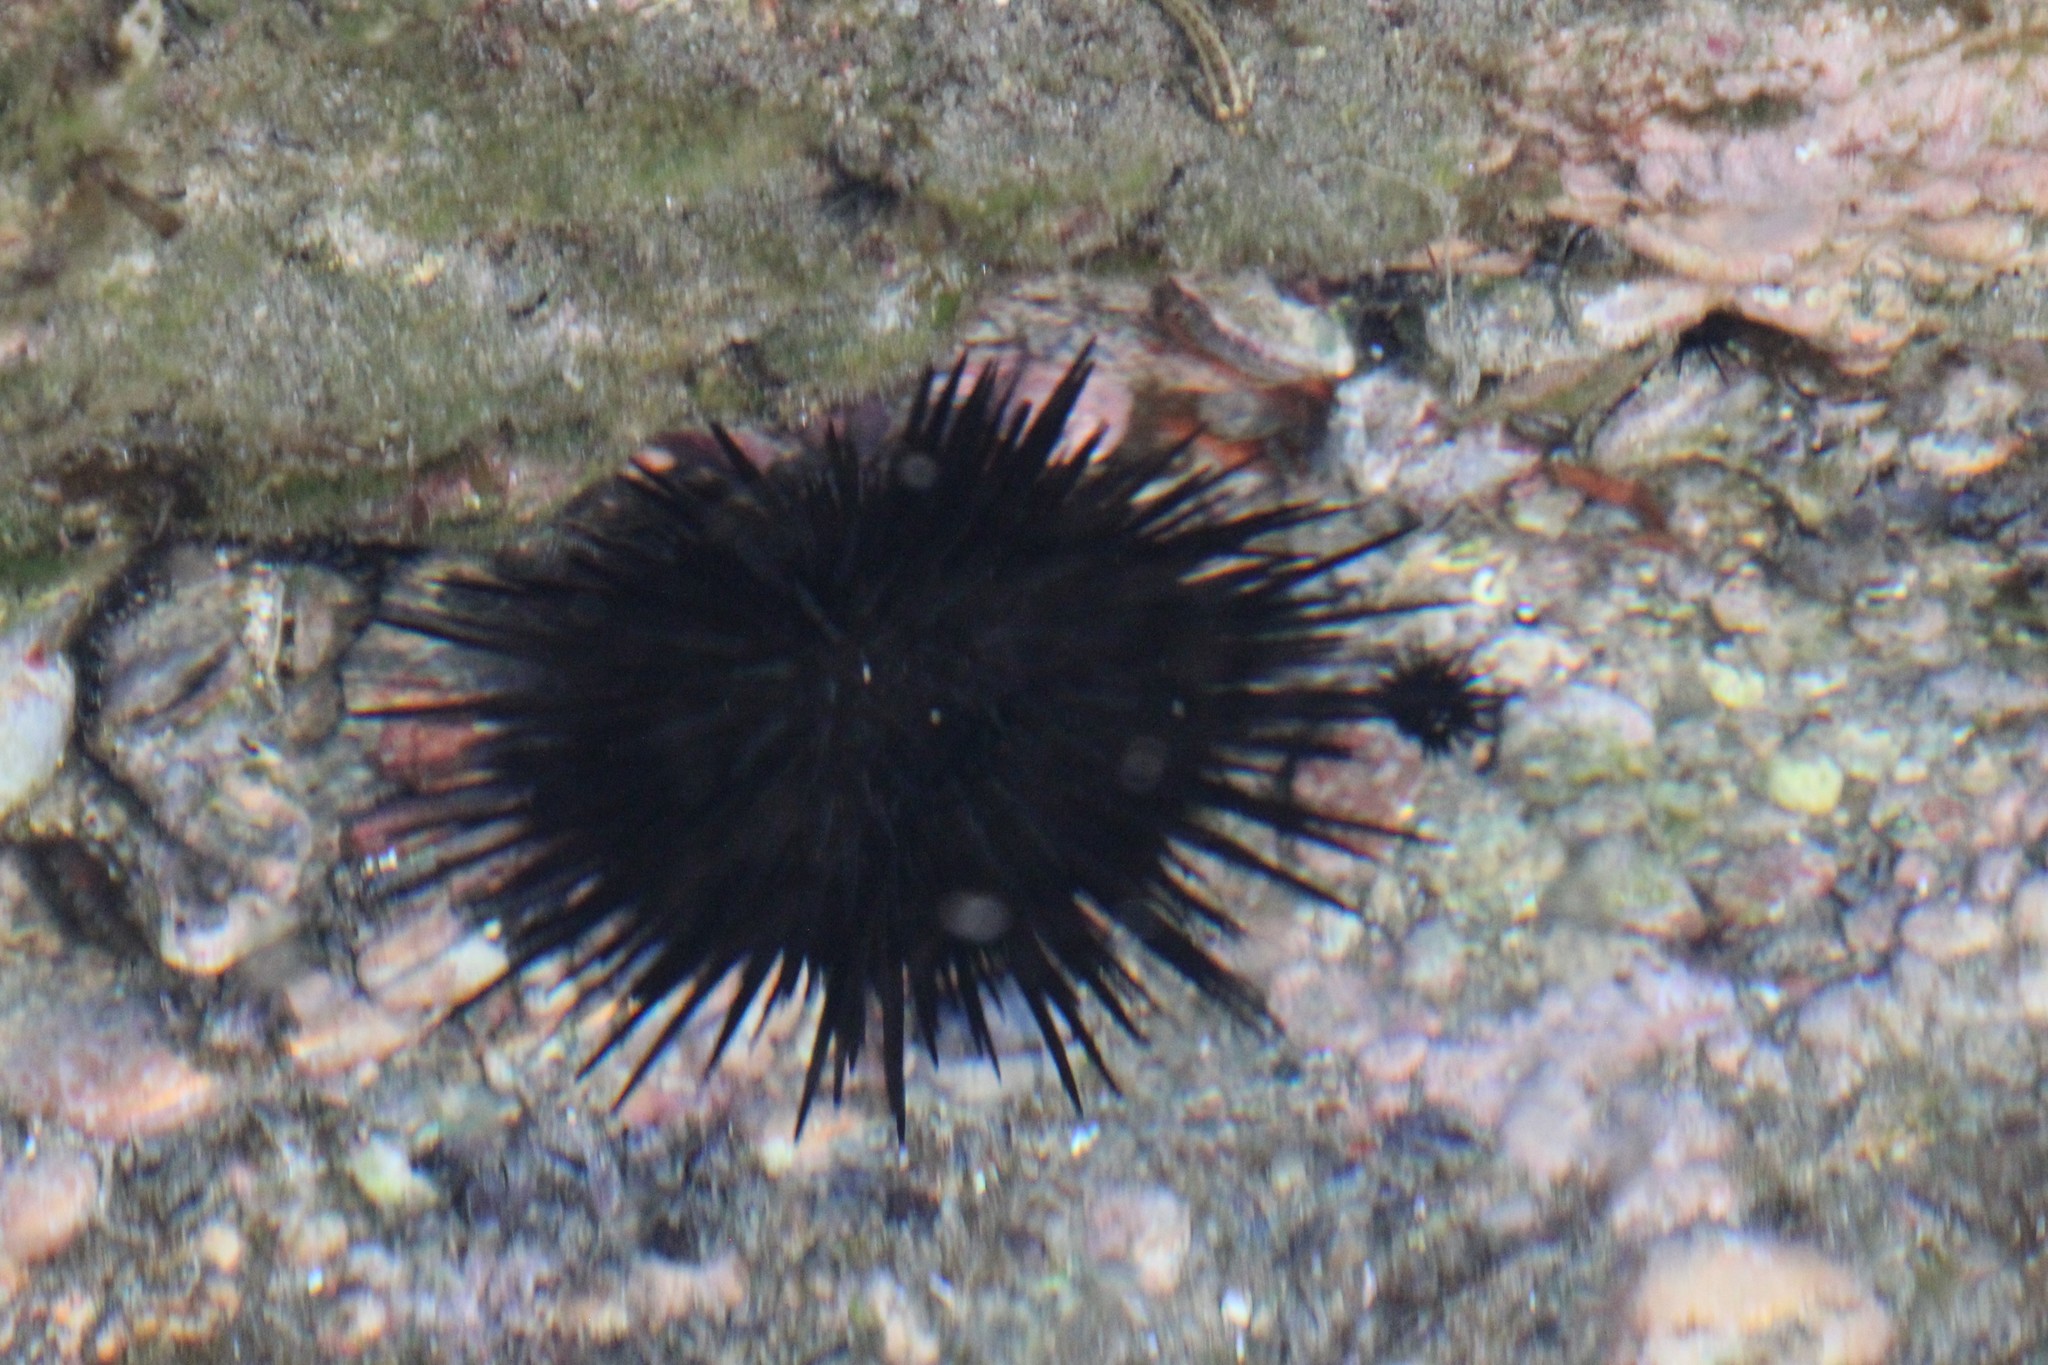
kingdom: Animalia
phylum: Echinodermata
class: Echinoidea
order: Camarodonta
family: Echinometridae
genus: Echinometra
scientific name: Echinometra vanbrunti
